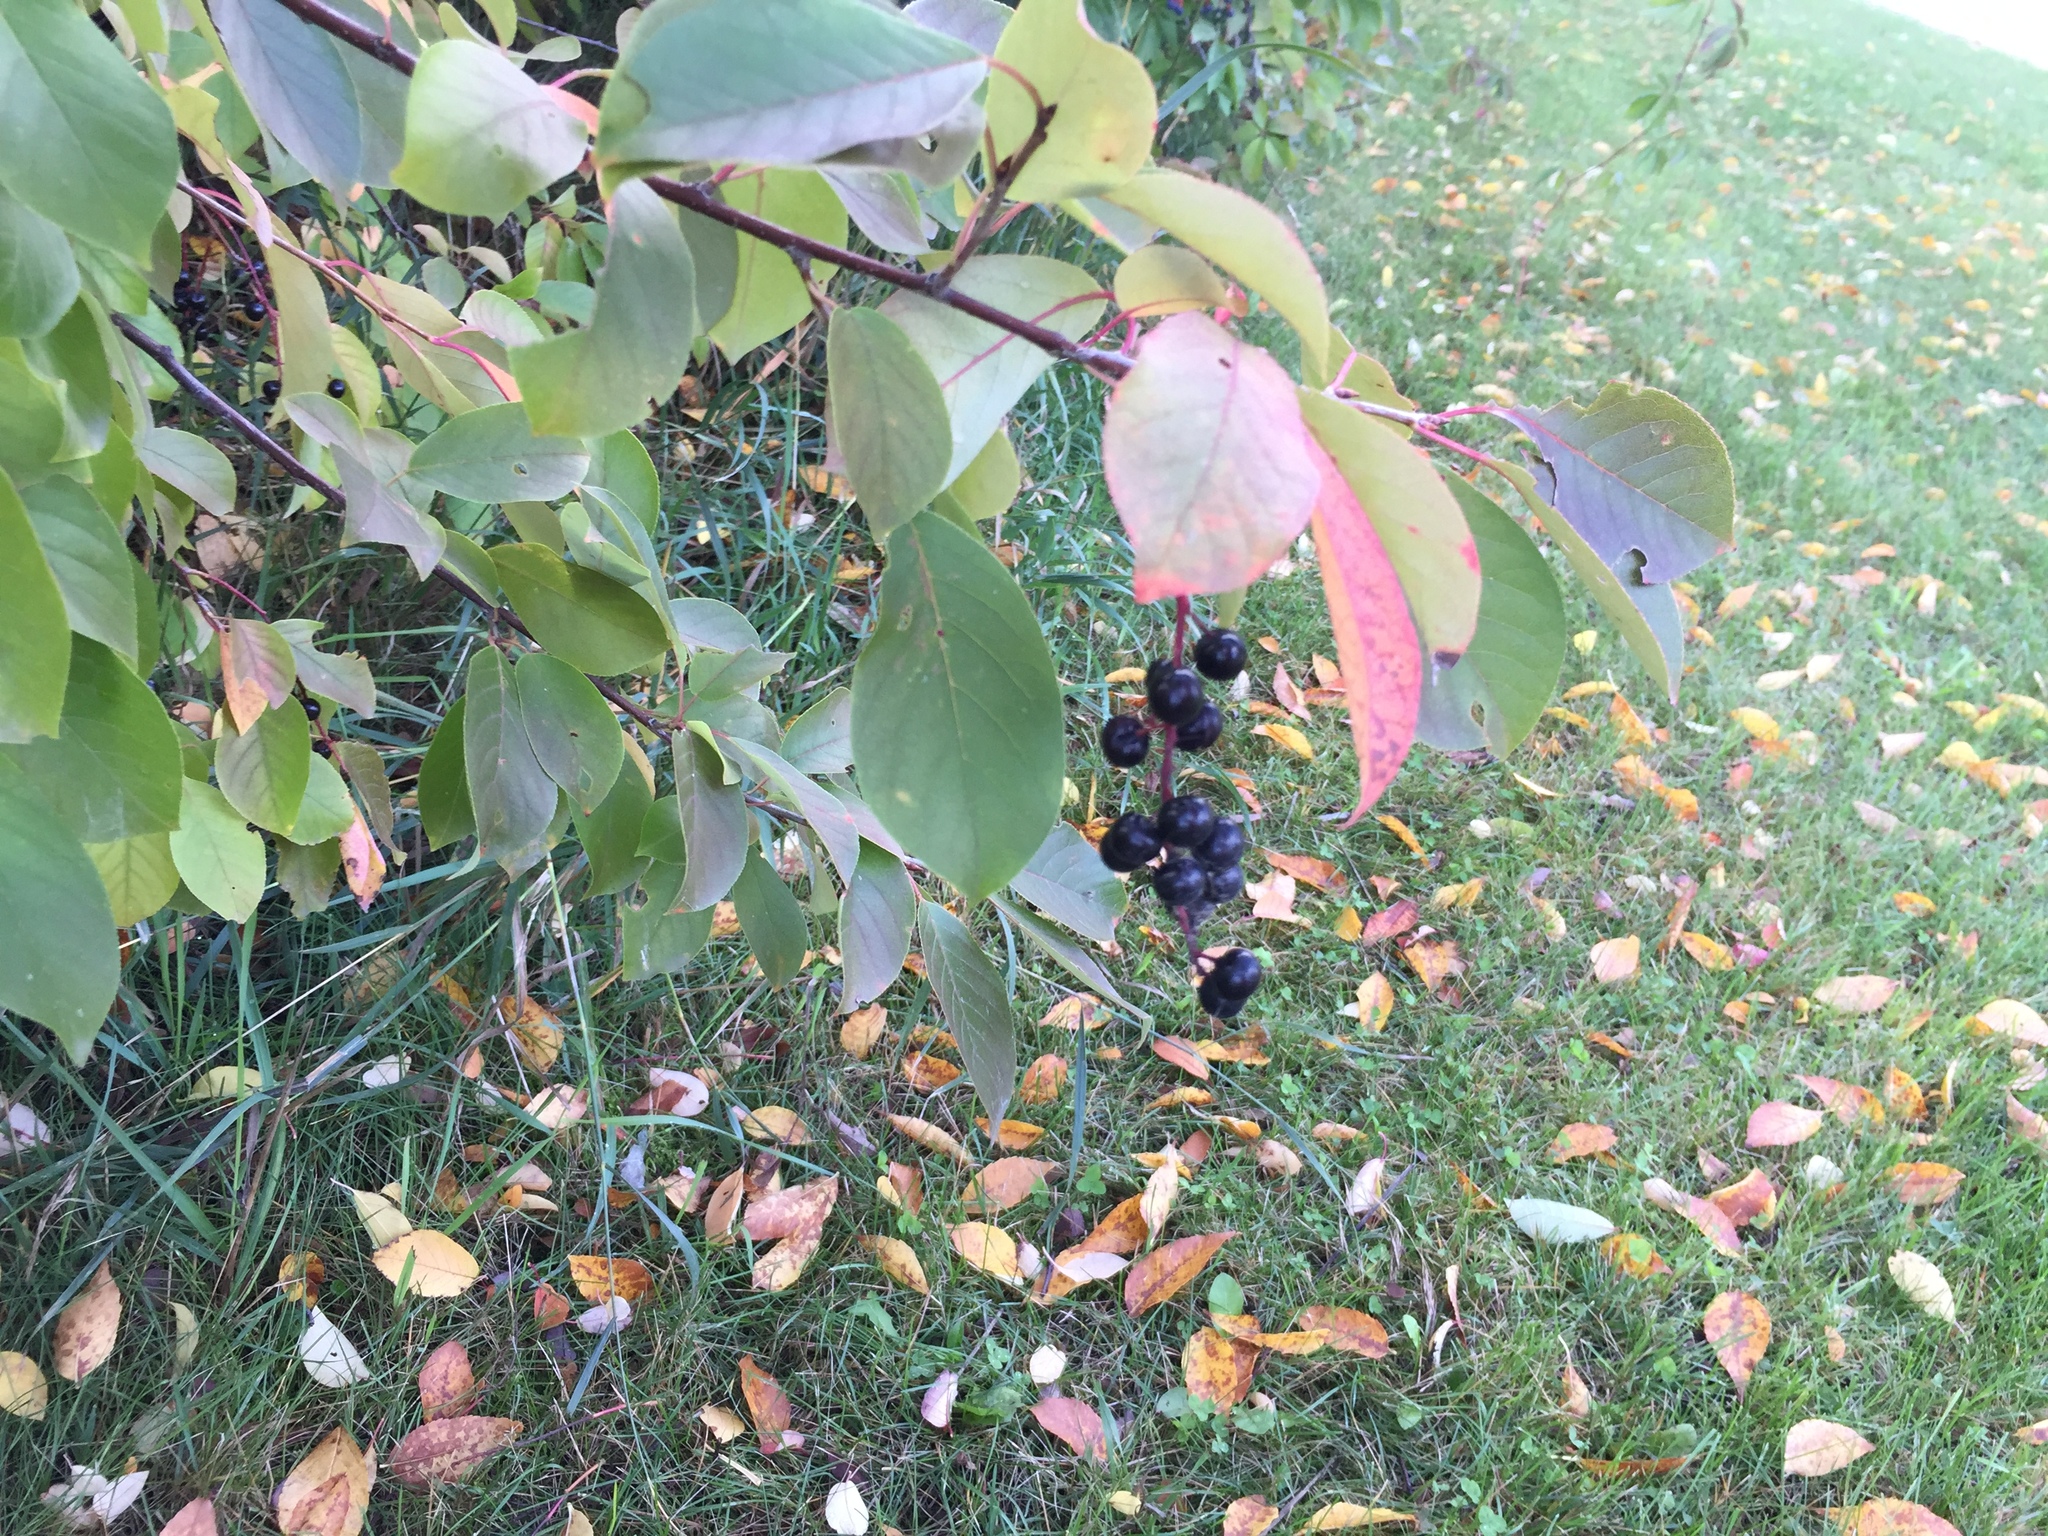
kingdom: Plantae
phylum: Tracheophyta
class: Magnoliopsida
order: Rosales
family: Rosaceae
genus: Prunus
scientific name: Prunus virginiana
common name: Chokecherry
